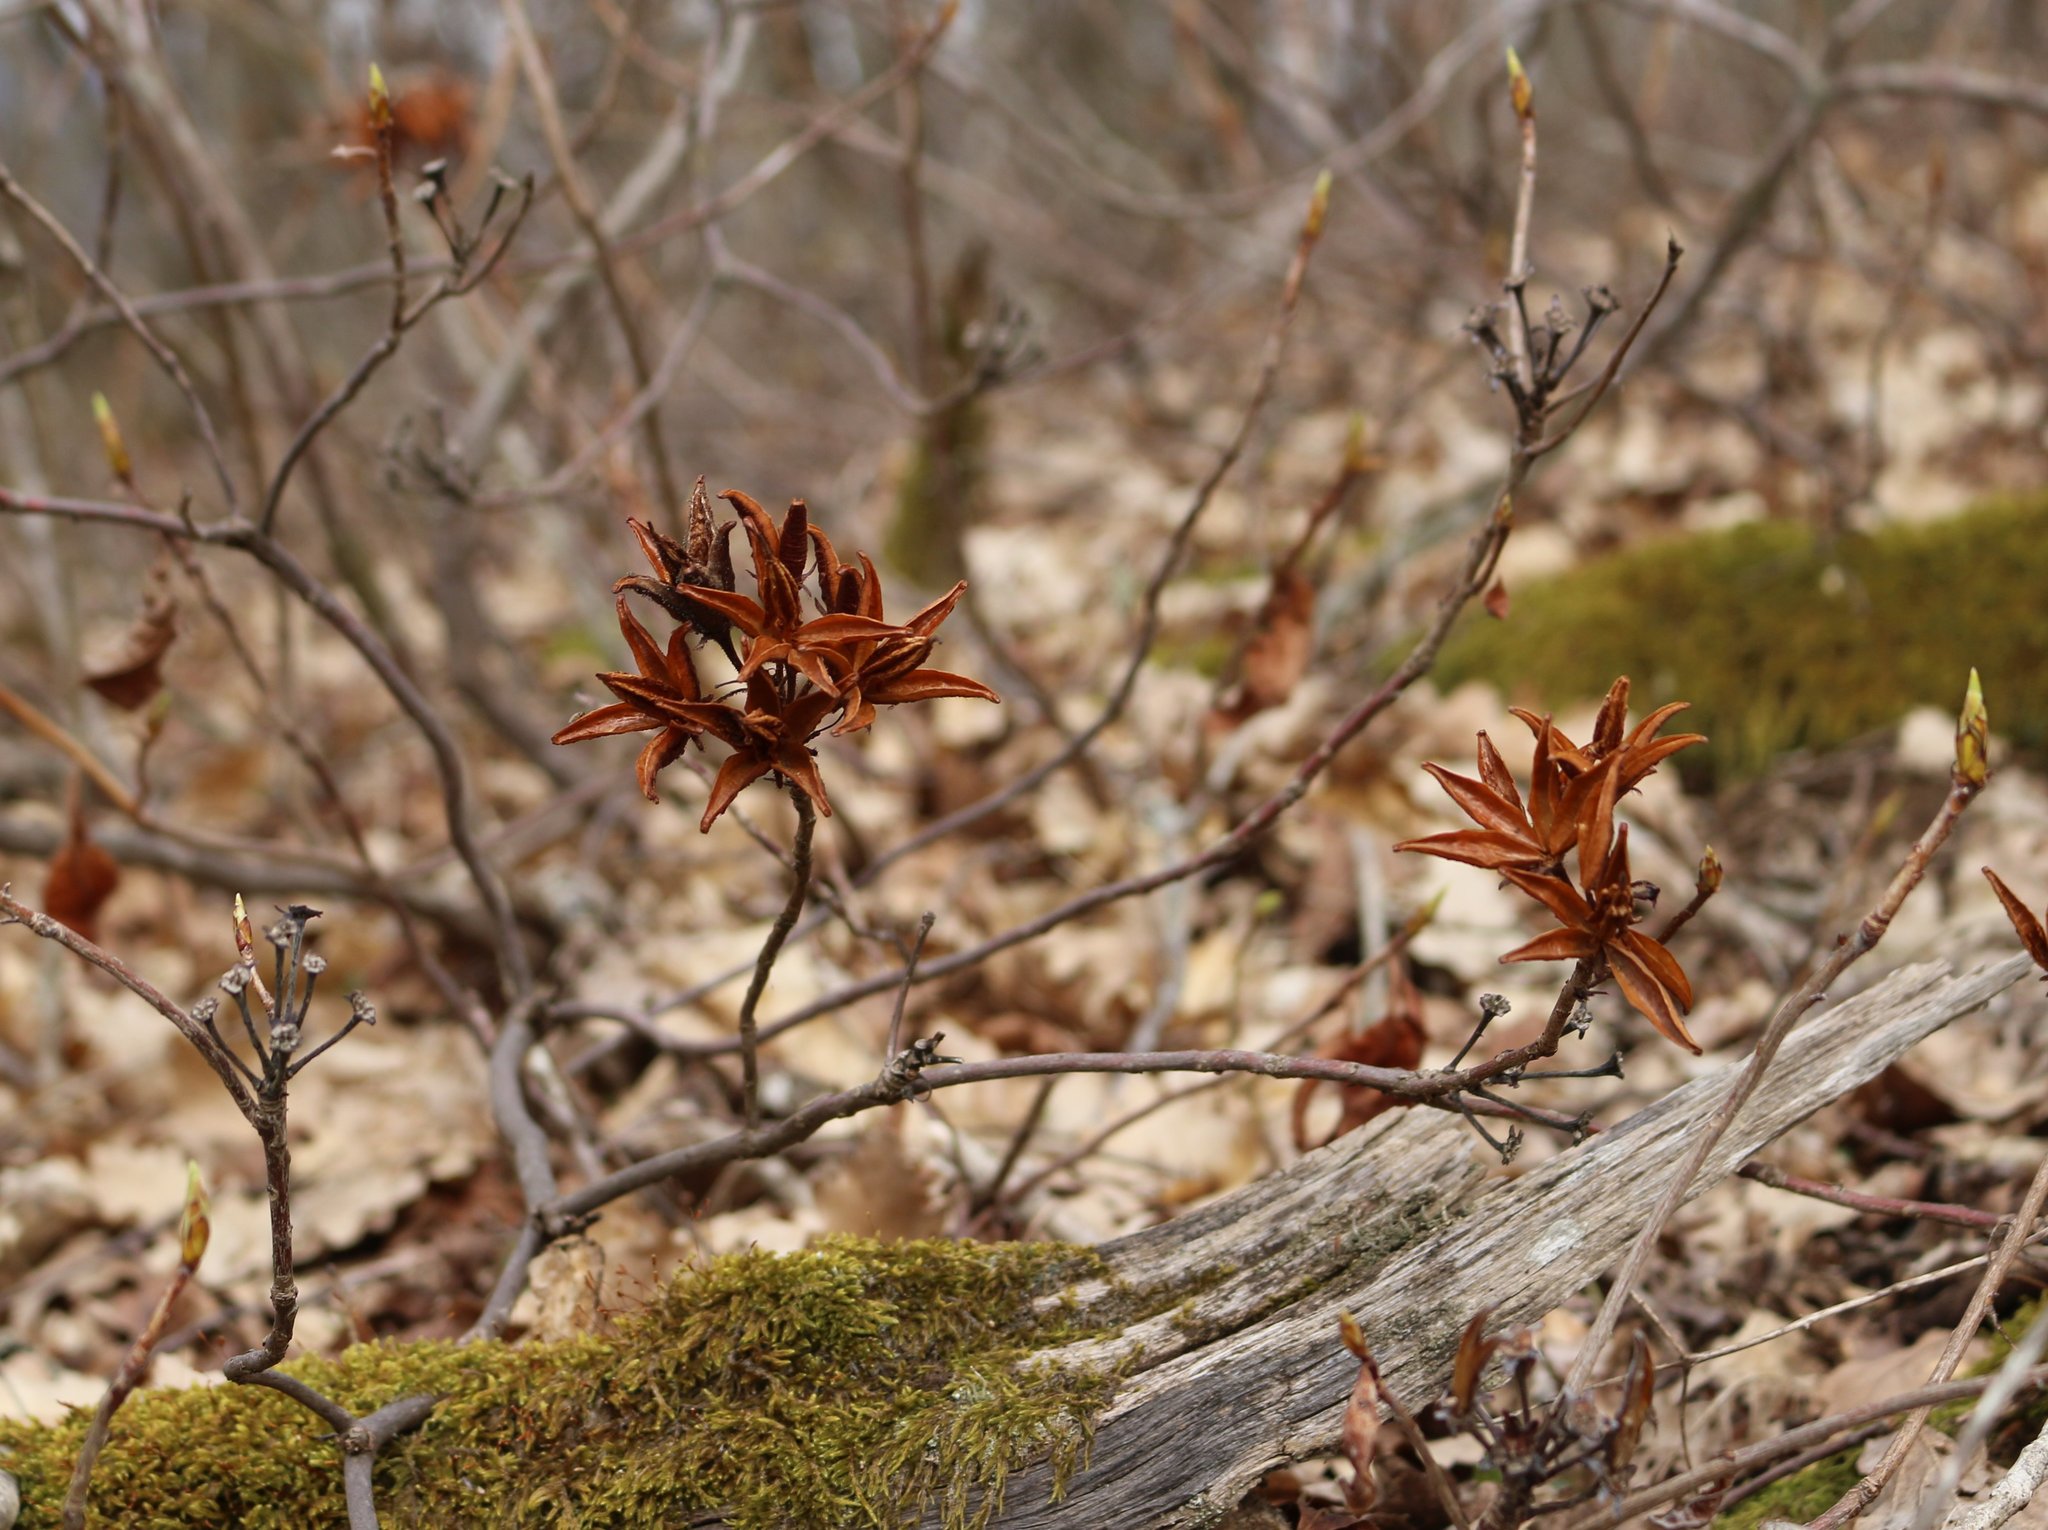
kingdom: Plantae
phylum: Tracheophyta
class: Magnoliopsida
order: Ericales
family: Ericaceae
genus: Rhododendron
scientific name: Rhododendron luteum
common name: Yellow azalea
